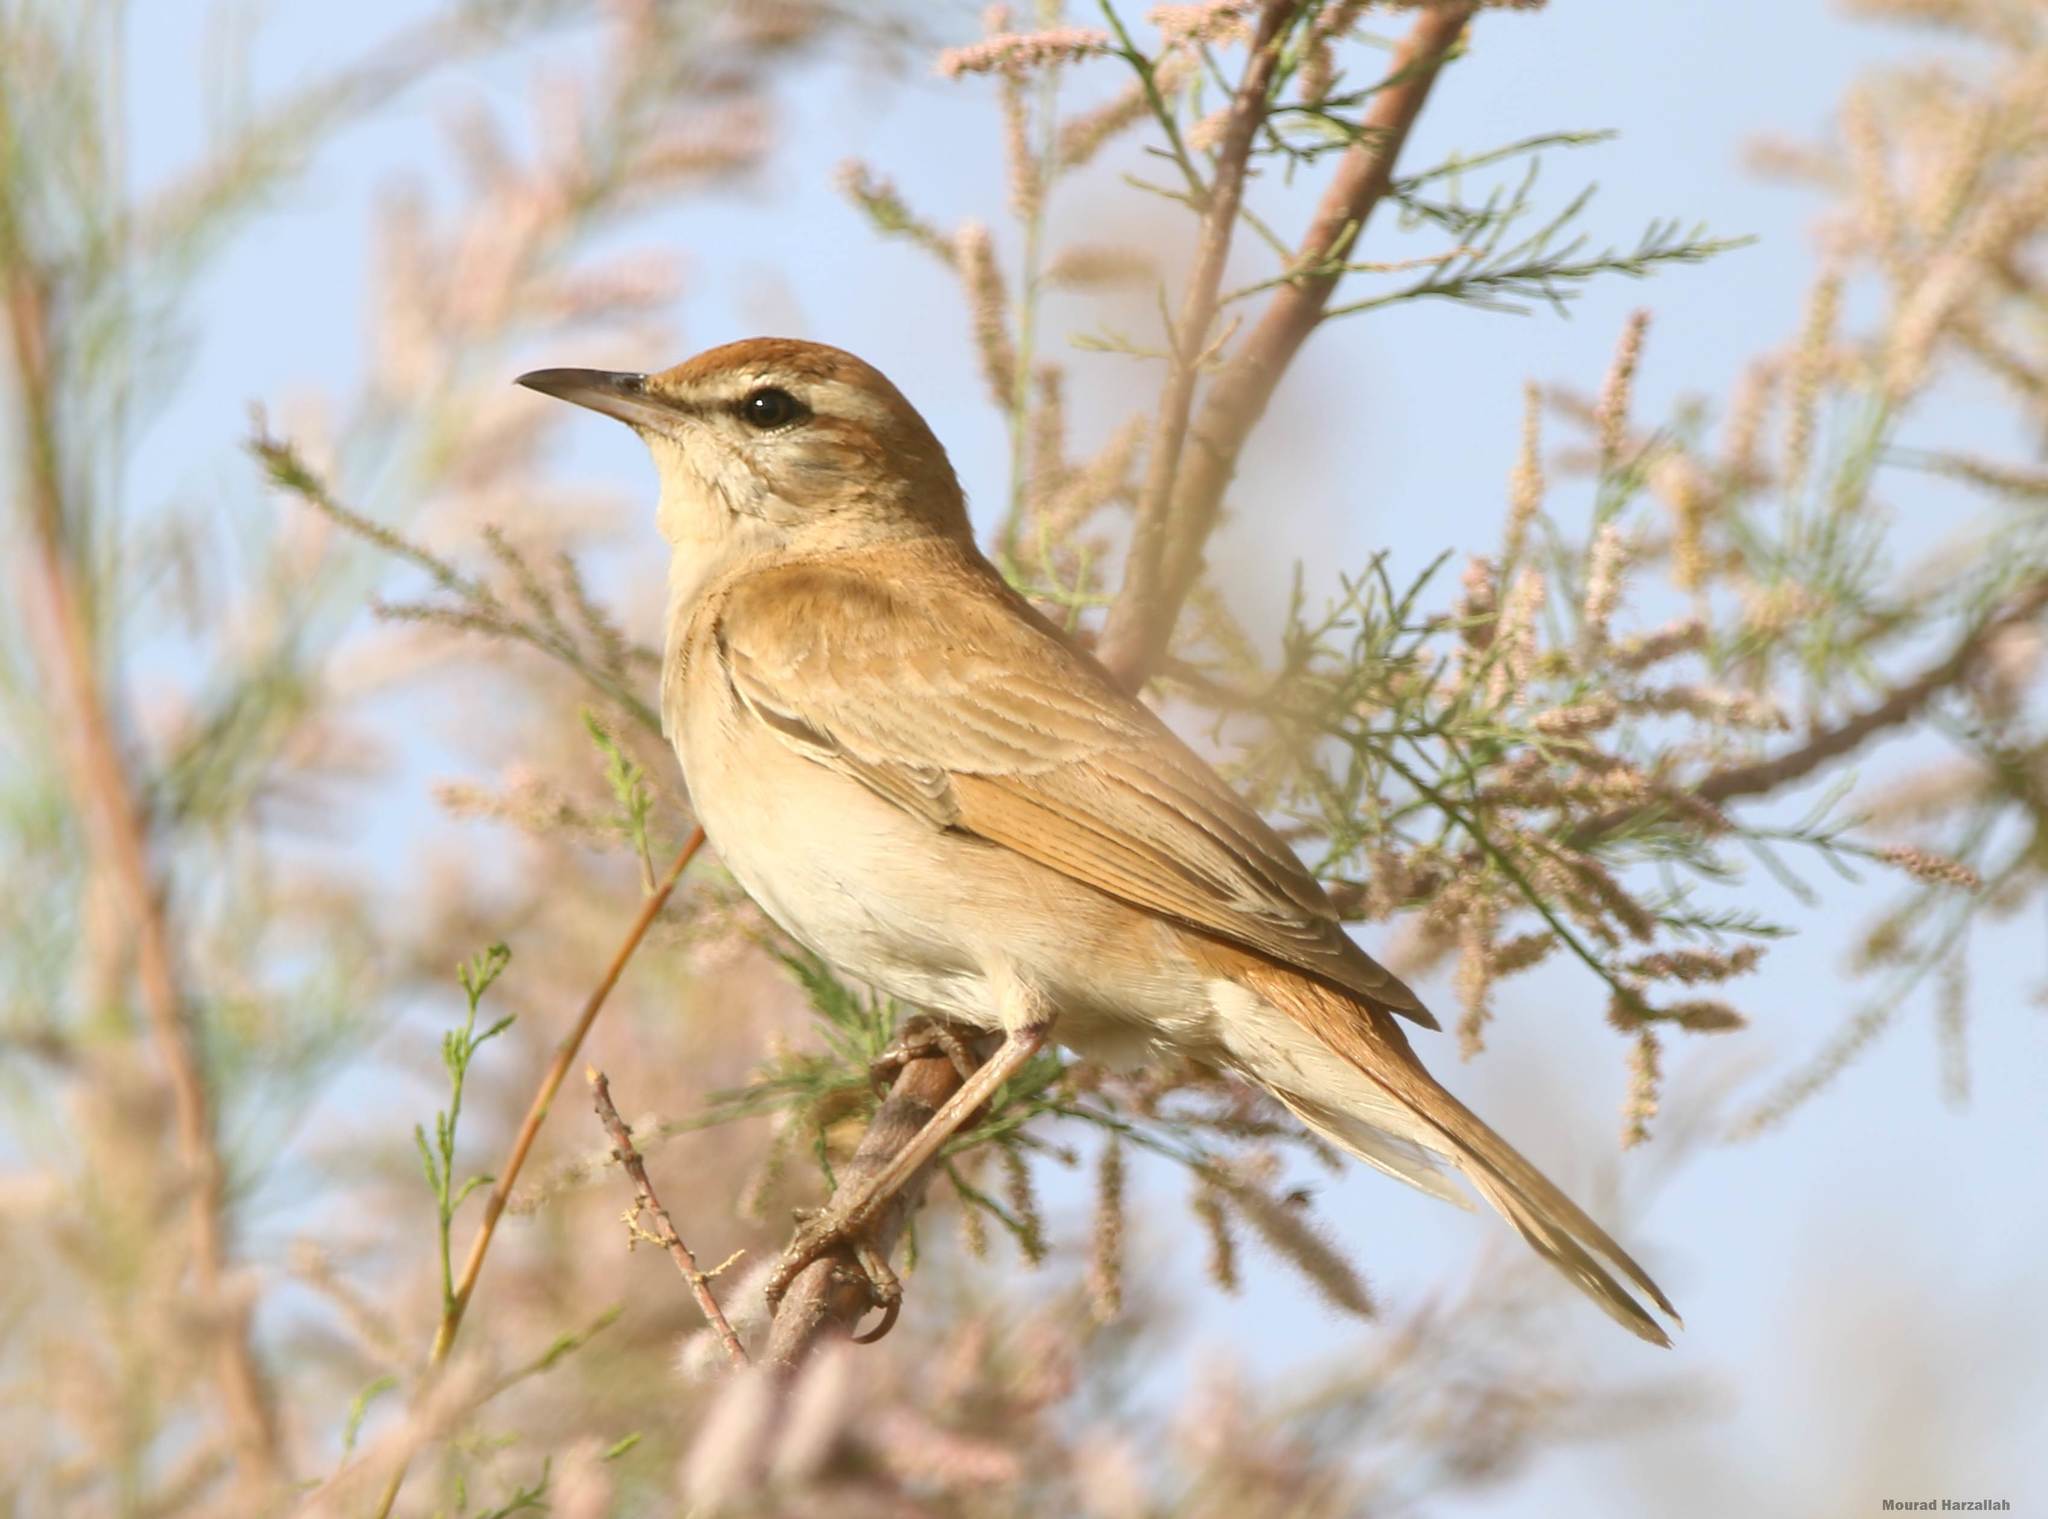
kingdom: Animalia
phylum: Chordata
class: Aves
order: Passeriformes
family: Muscicapidae
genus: Erythropygia
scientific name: Erythropygia galactotes
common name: Rufous-tailed scrub robin
